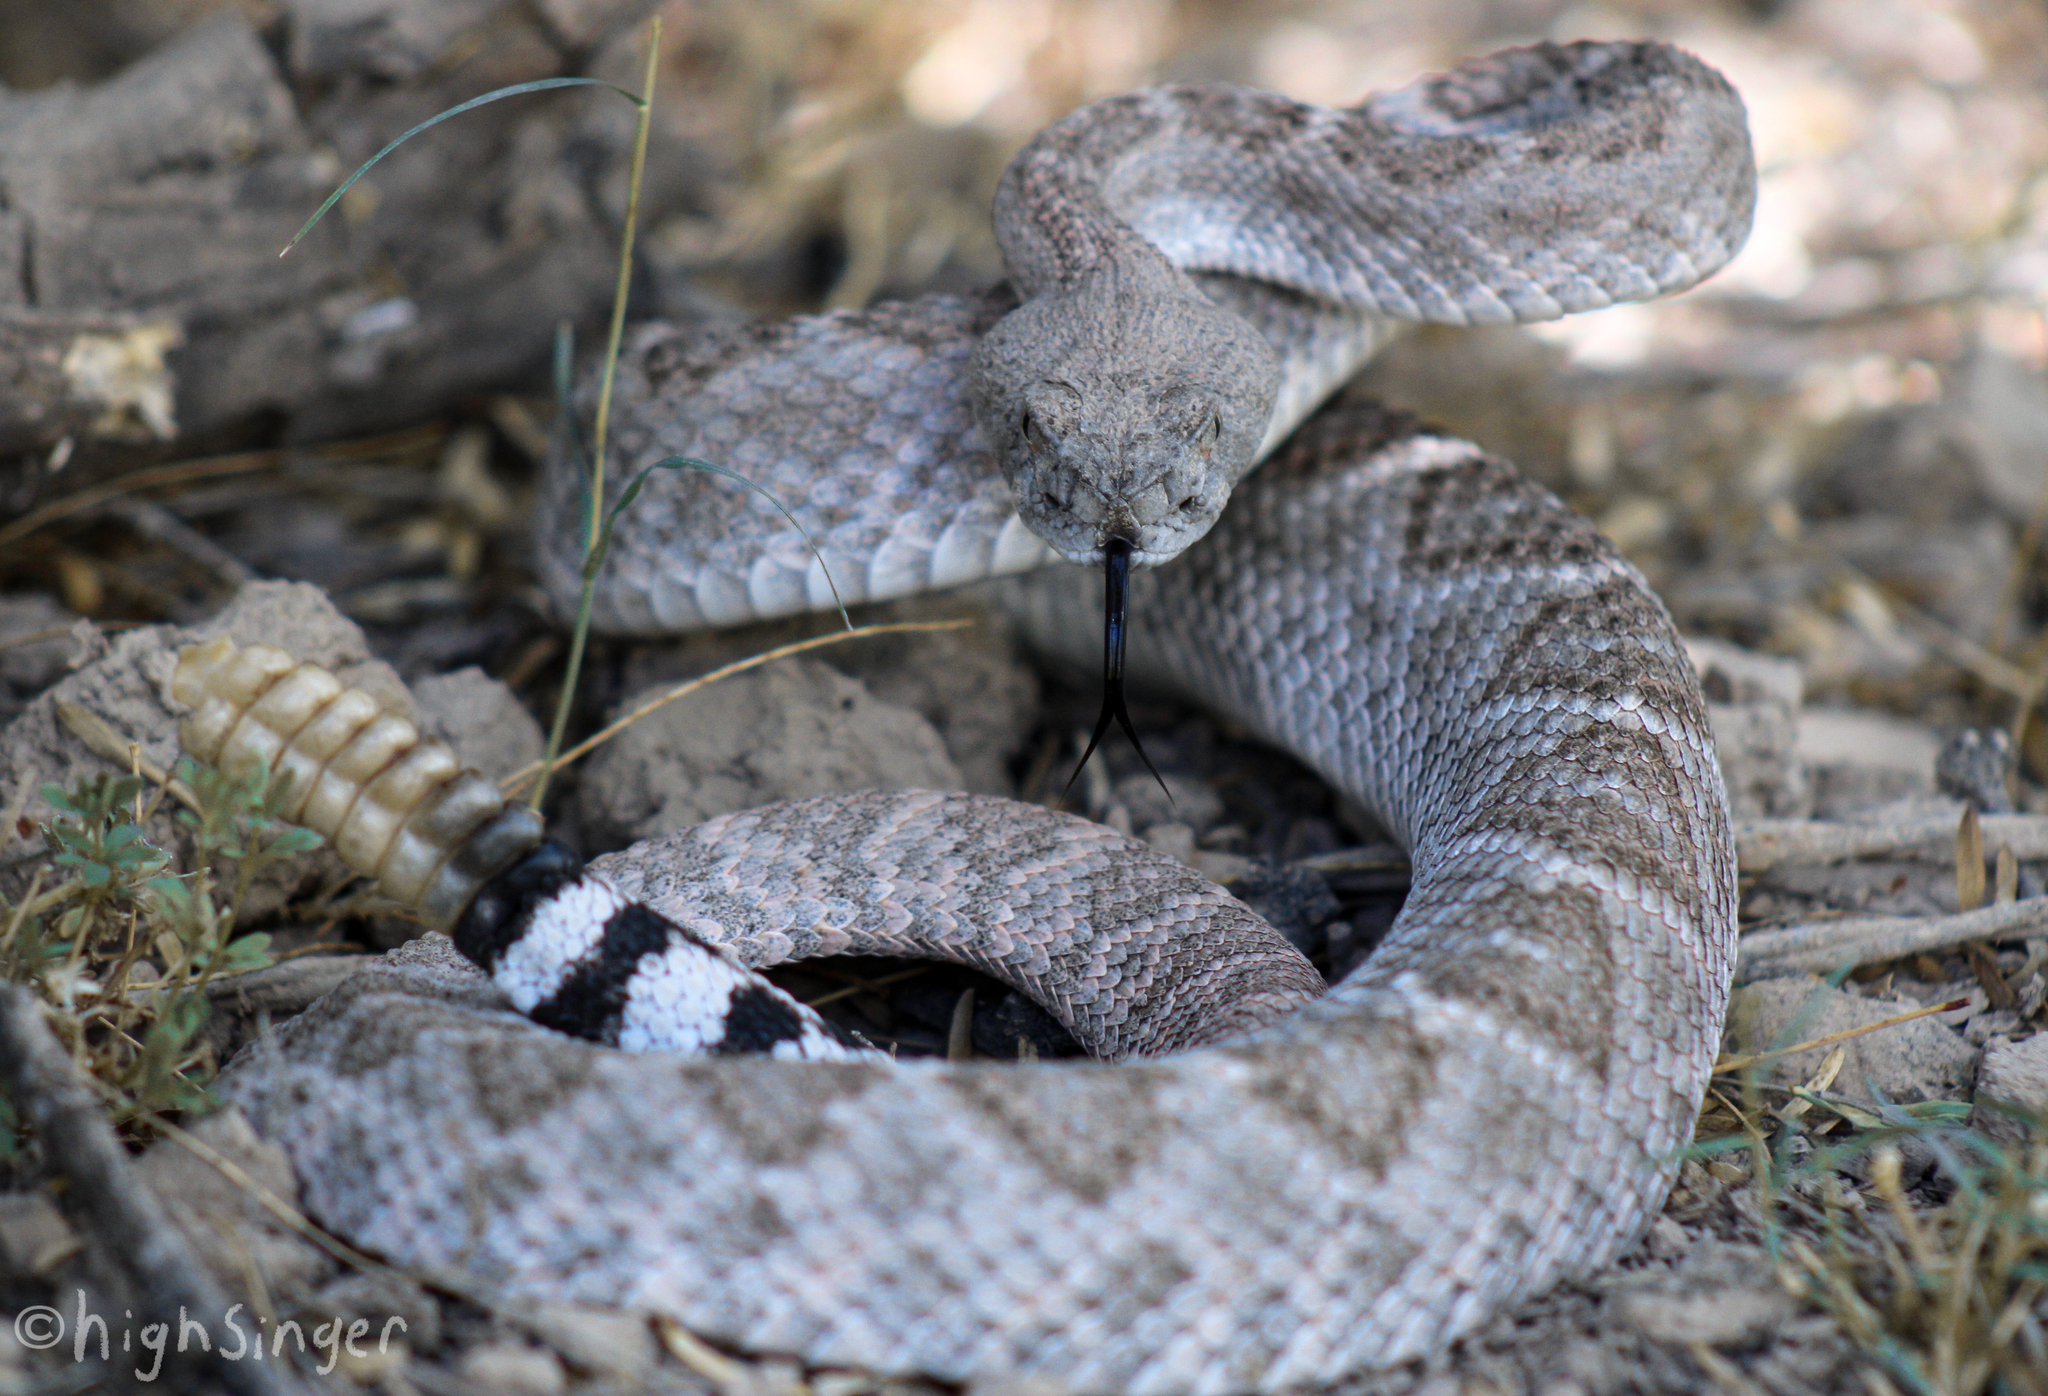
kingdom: Animalia
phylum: Chordata
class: Squamata
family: Viperidae
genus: Crotalus
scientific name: Crotalus atrox
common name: Western diamond-backed rattlesnake
